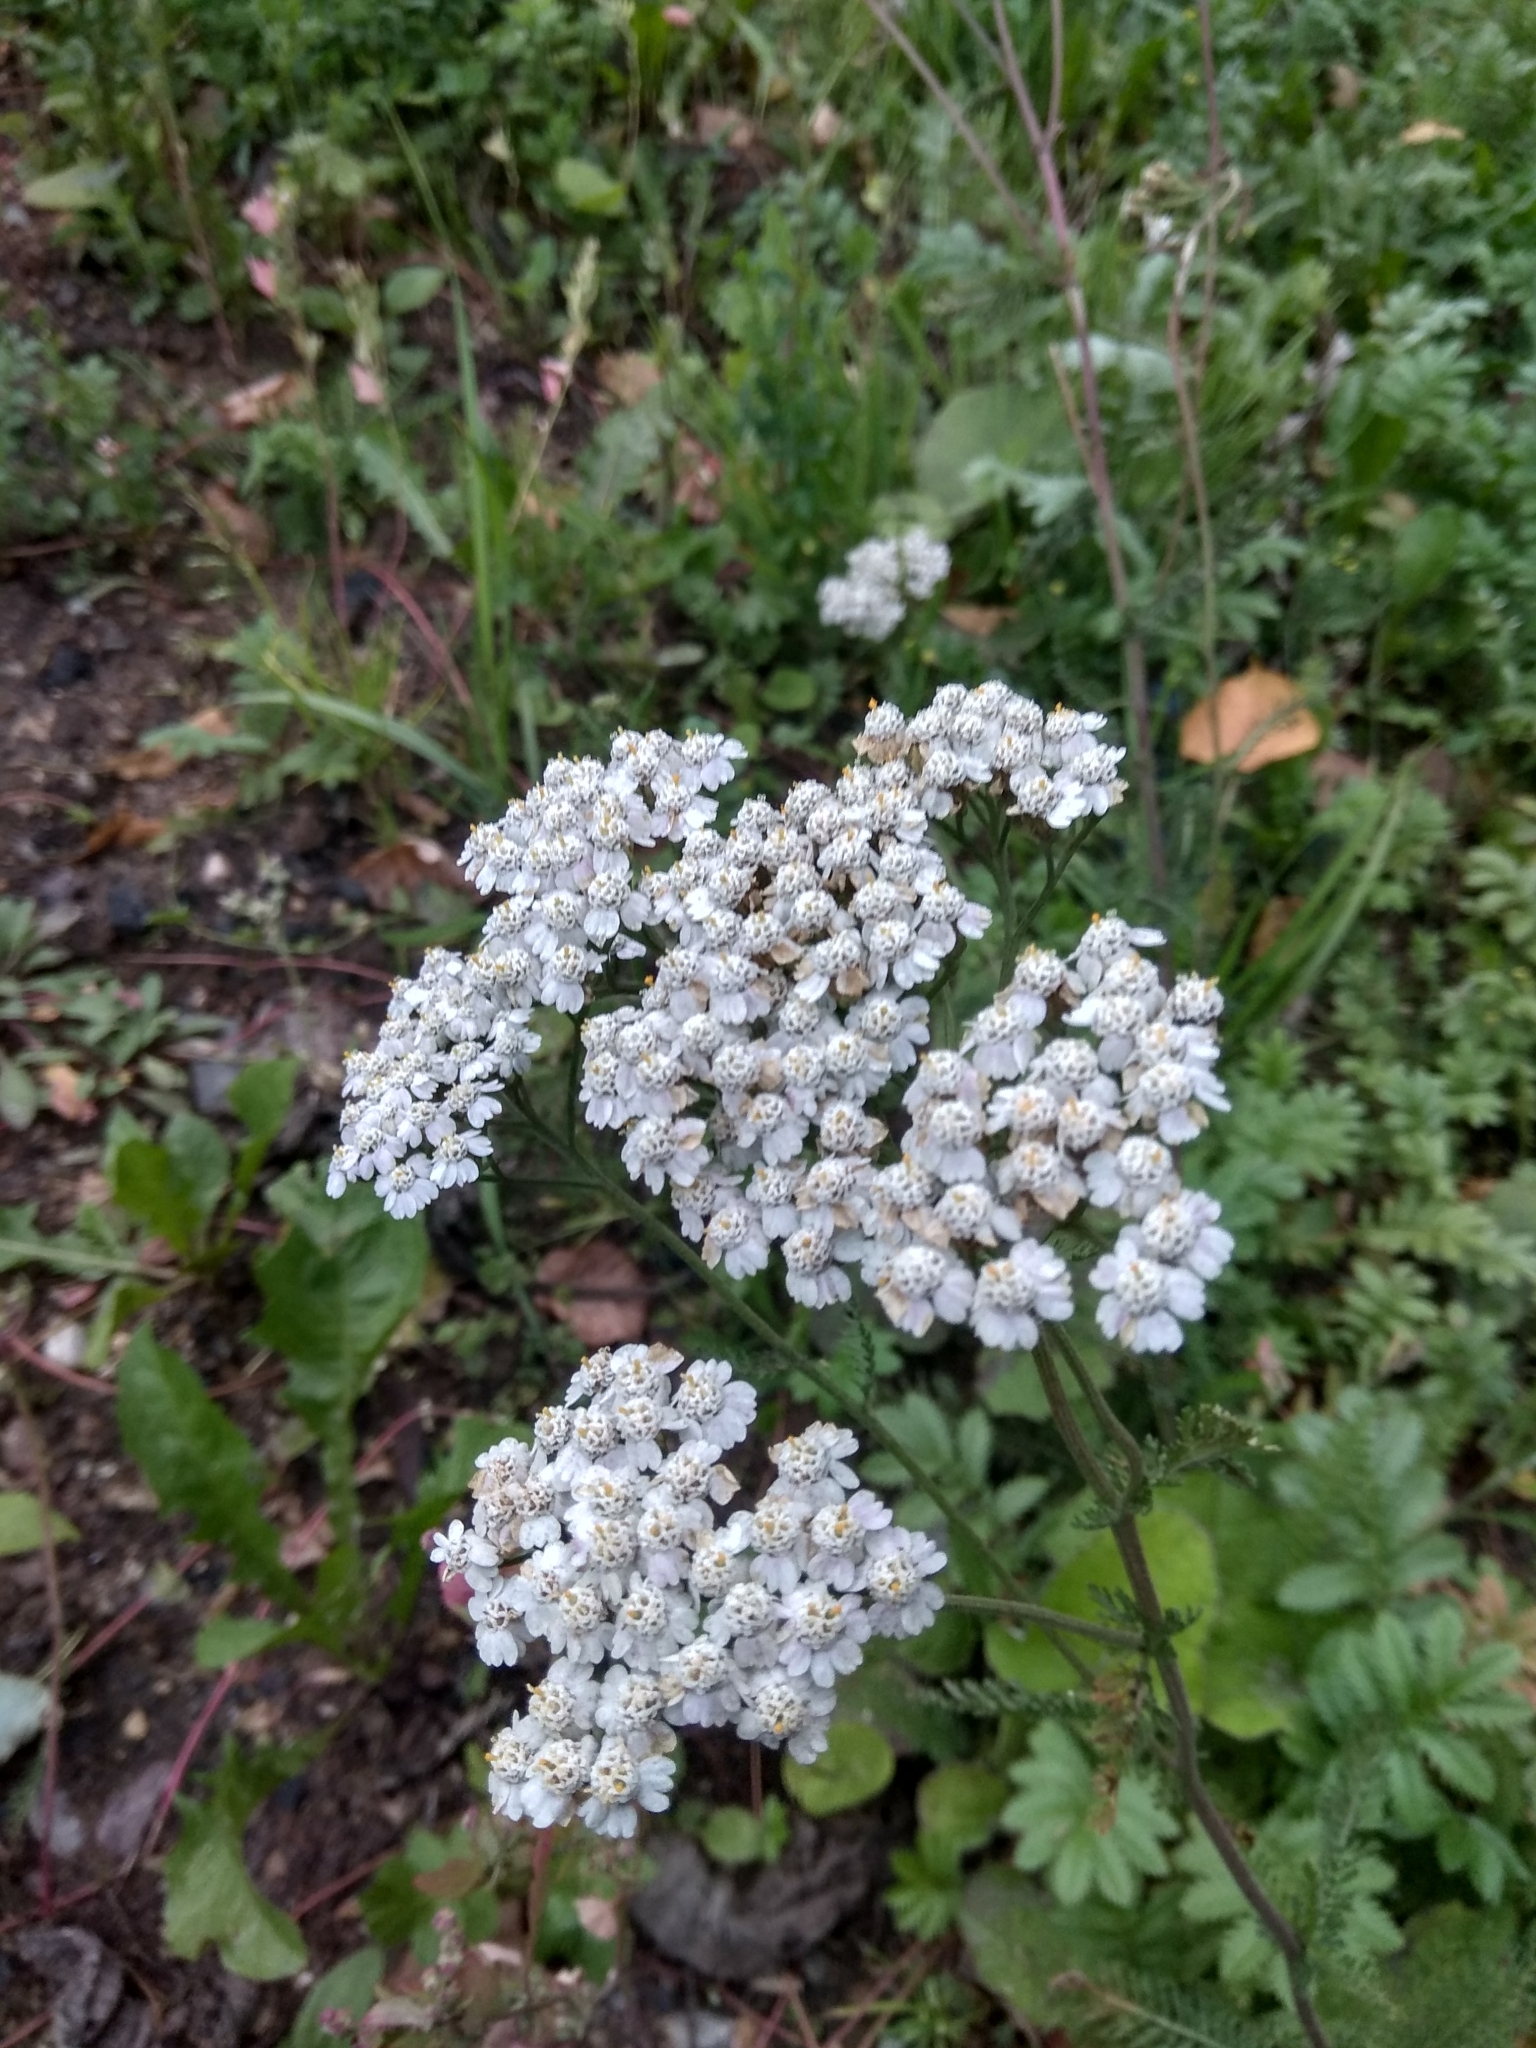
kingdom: Plantae
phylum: Tracheophyta
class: Magnoliopsida
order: Asterales
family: Asteraceae
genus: Achillea
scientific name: Achillea millefolium
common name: Yarrow
